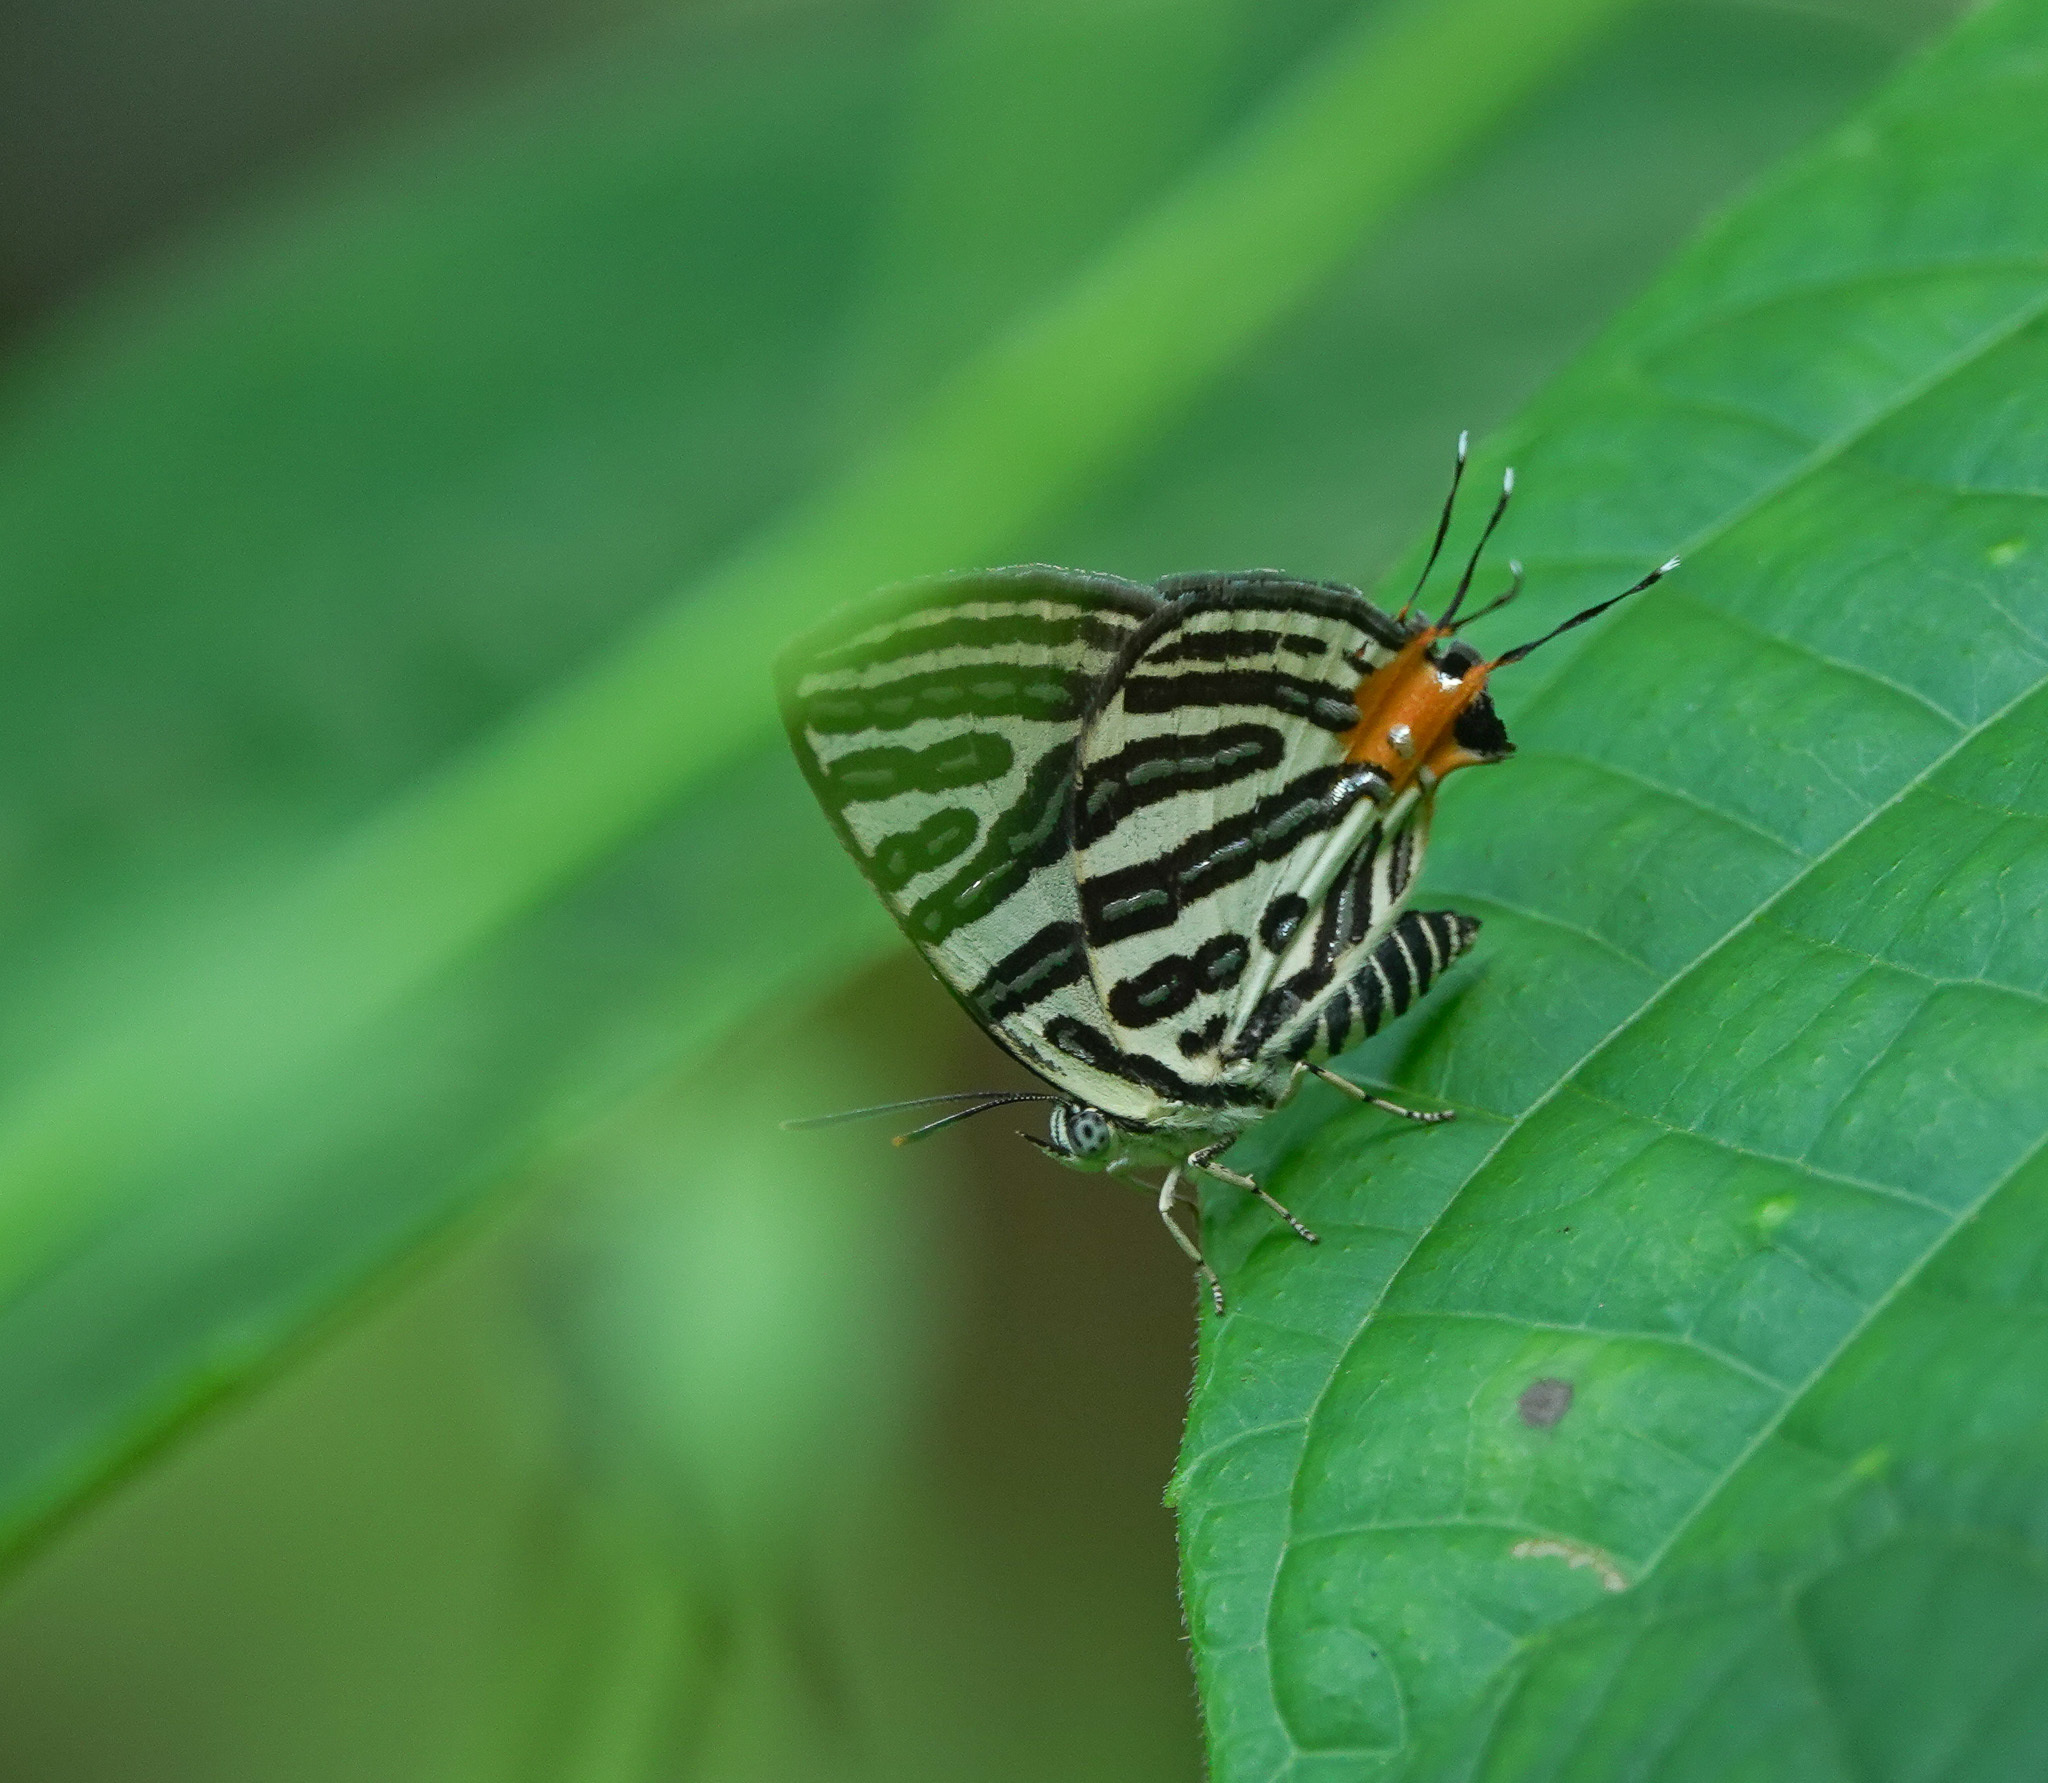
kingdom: Animalia
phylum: Arthropoda
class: Insecta
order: Lepidoptera
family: Lycaenidae
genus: Cigaritis
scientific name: Cigaritis syama
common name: Club silverline
